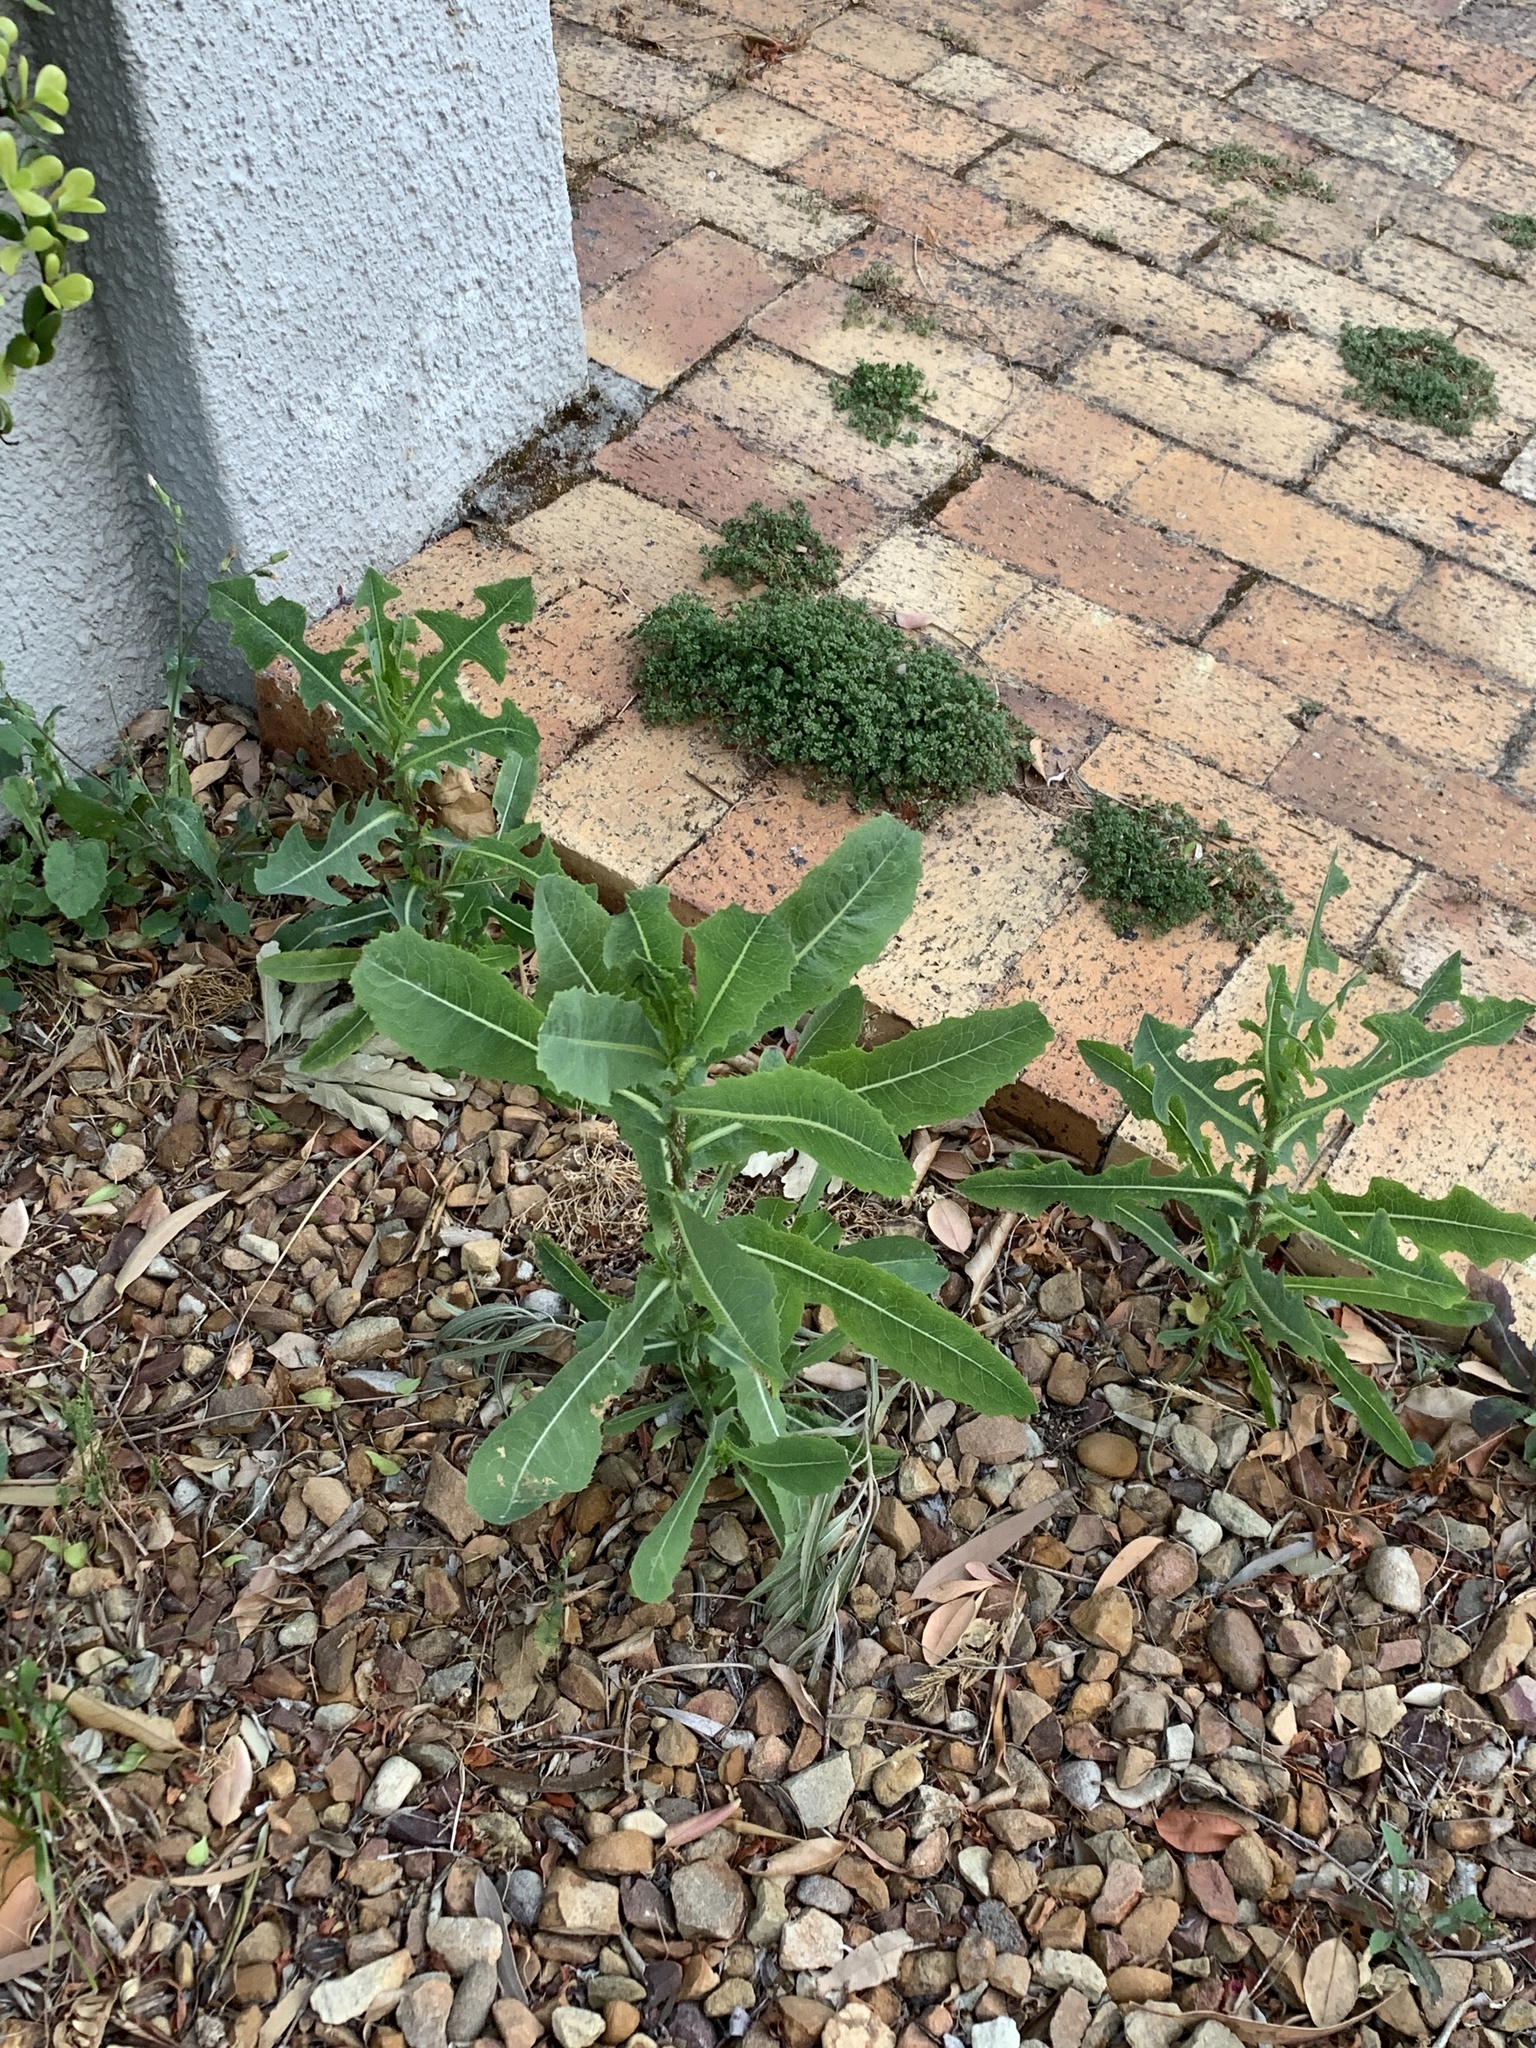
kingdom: Plantae
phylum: Tracheophyta
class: Magnoliopsida
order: Asterales
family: Asteraceae
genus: Lactuca
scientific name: Lactuca serriola
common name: Prickly lettuce
